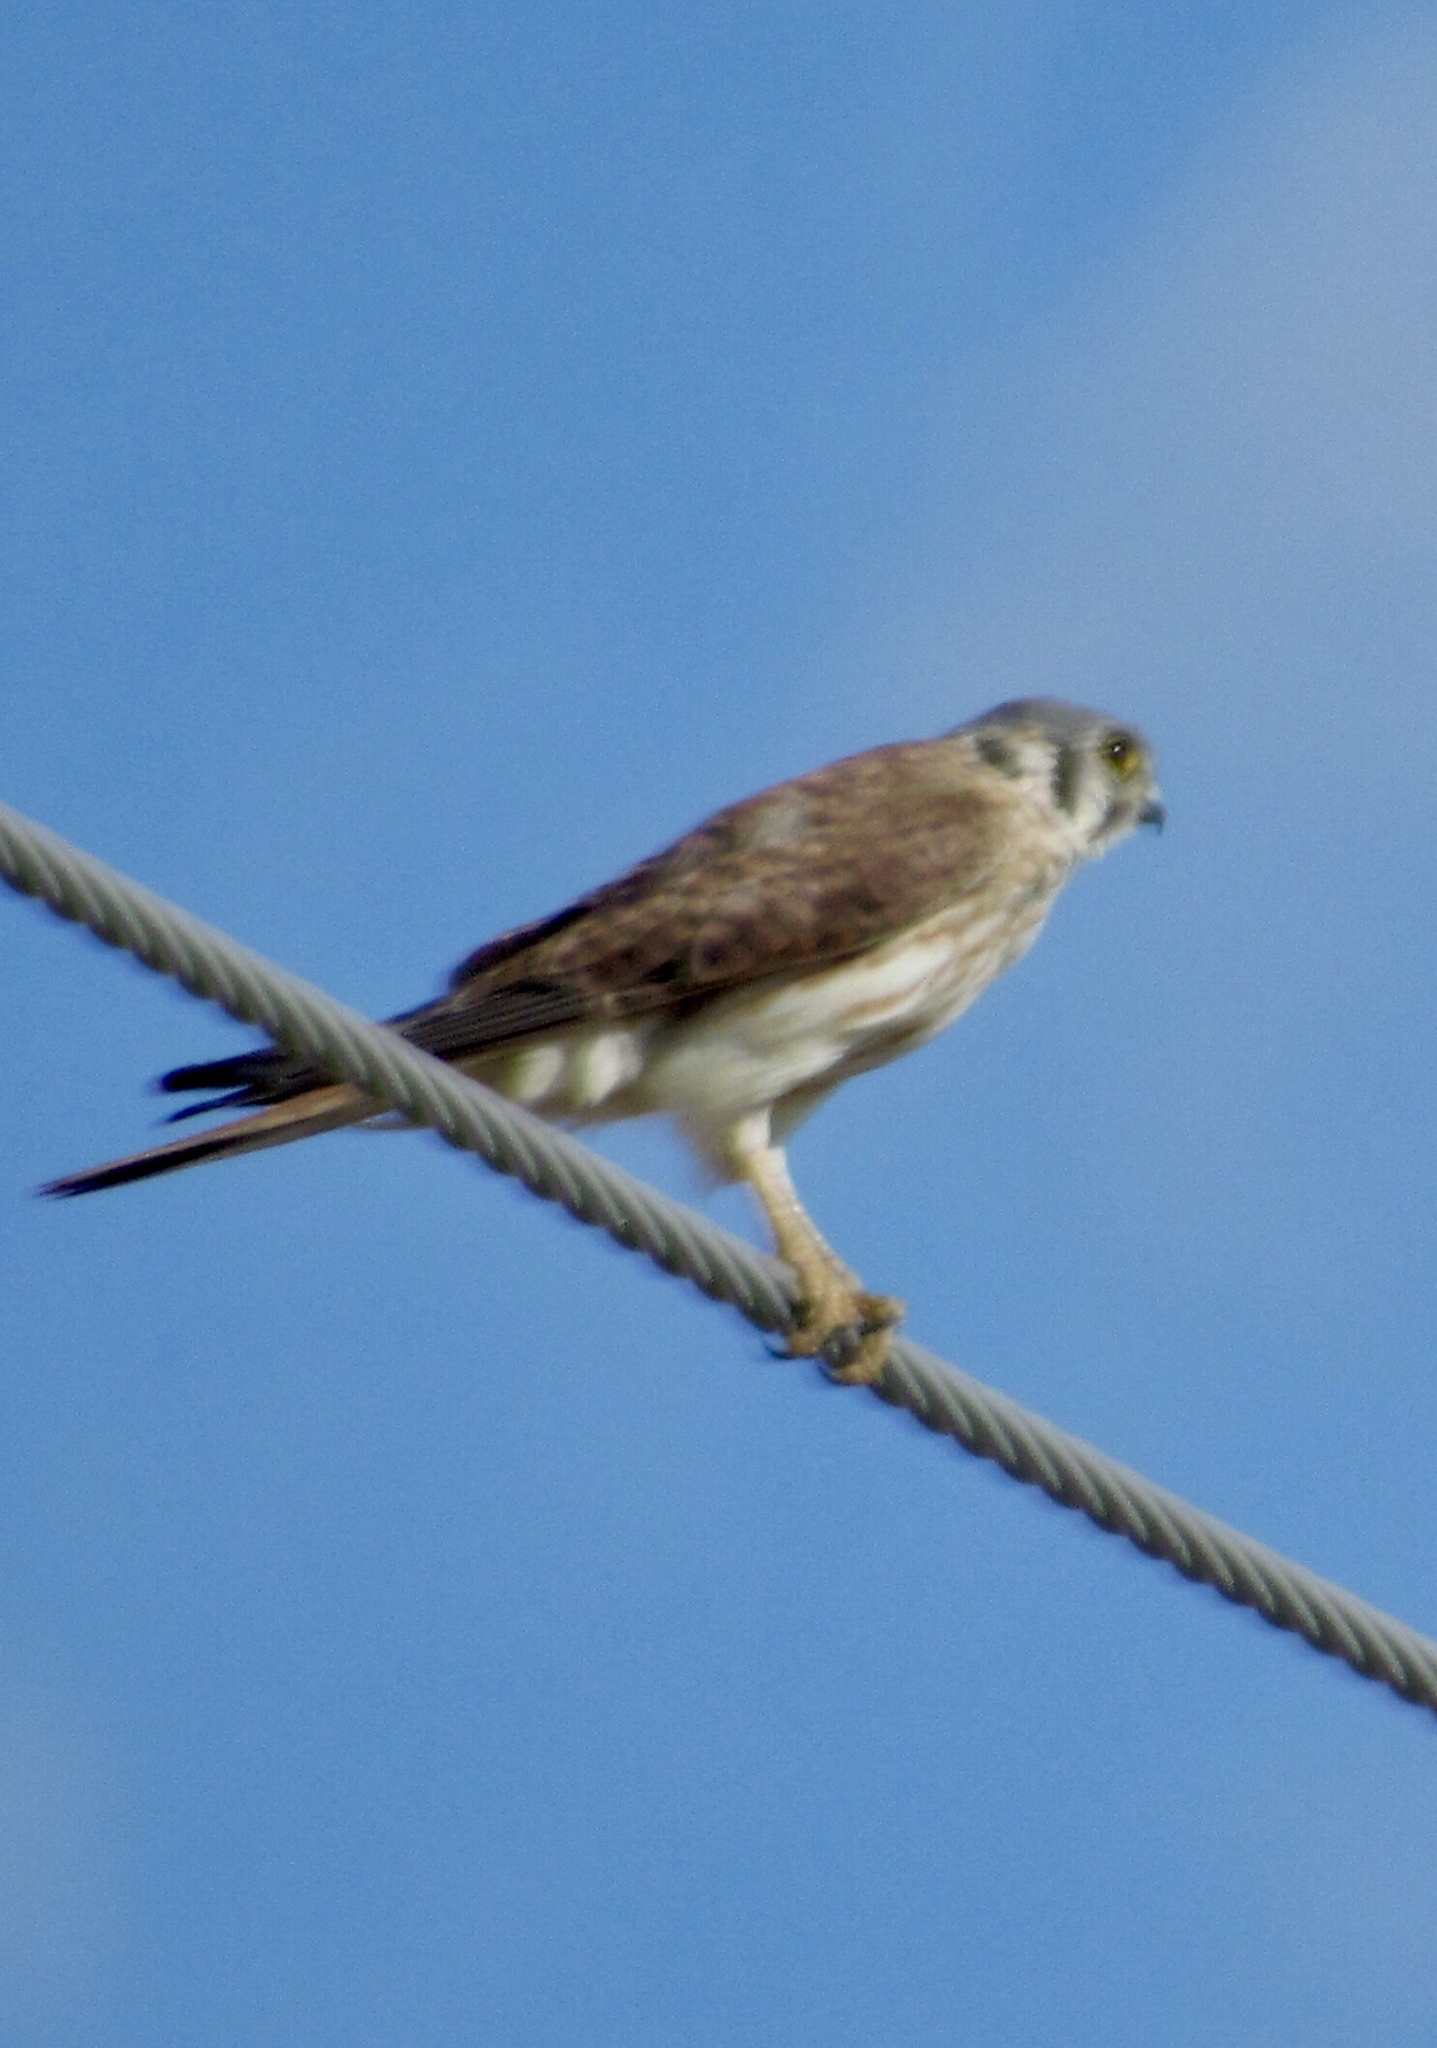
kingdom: Animalia
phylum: Chordata
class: Aves
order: Falconiformes
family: Falconidae
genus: Falco
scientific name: Falco sparverius
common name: American kestrel
